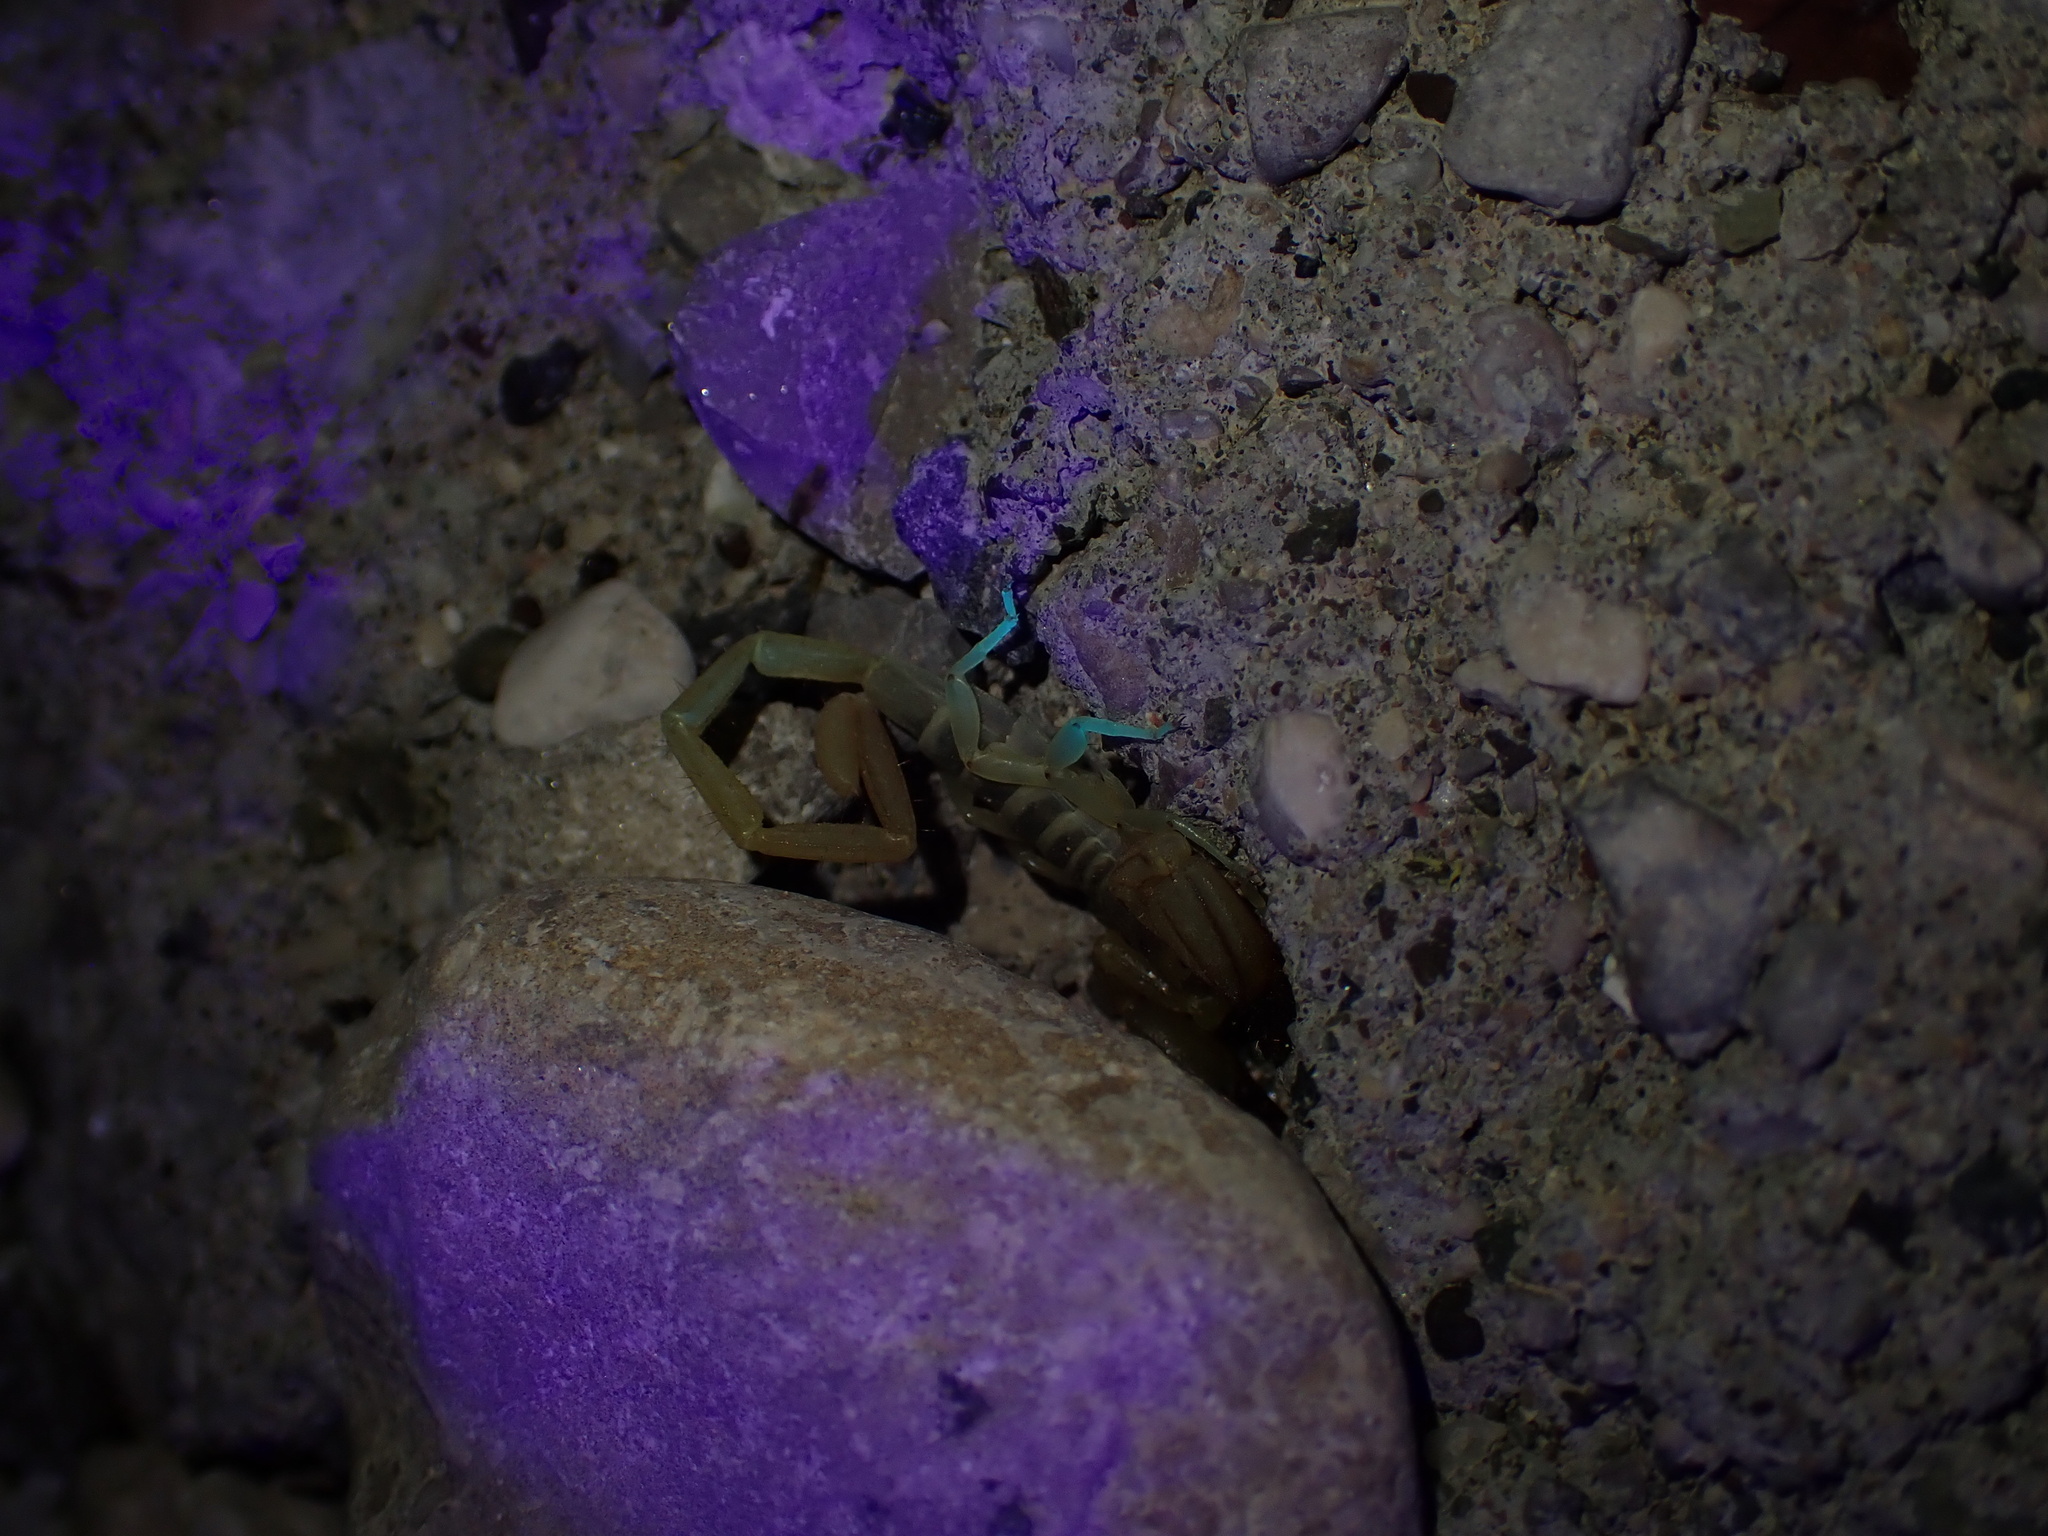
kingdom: Animalia
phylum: Arthropoda
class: Arachnida
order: Scorpiones
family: Hemiscorpiidae
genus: Hemiscorpius
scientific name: Hemiscorpius acanthocercus
